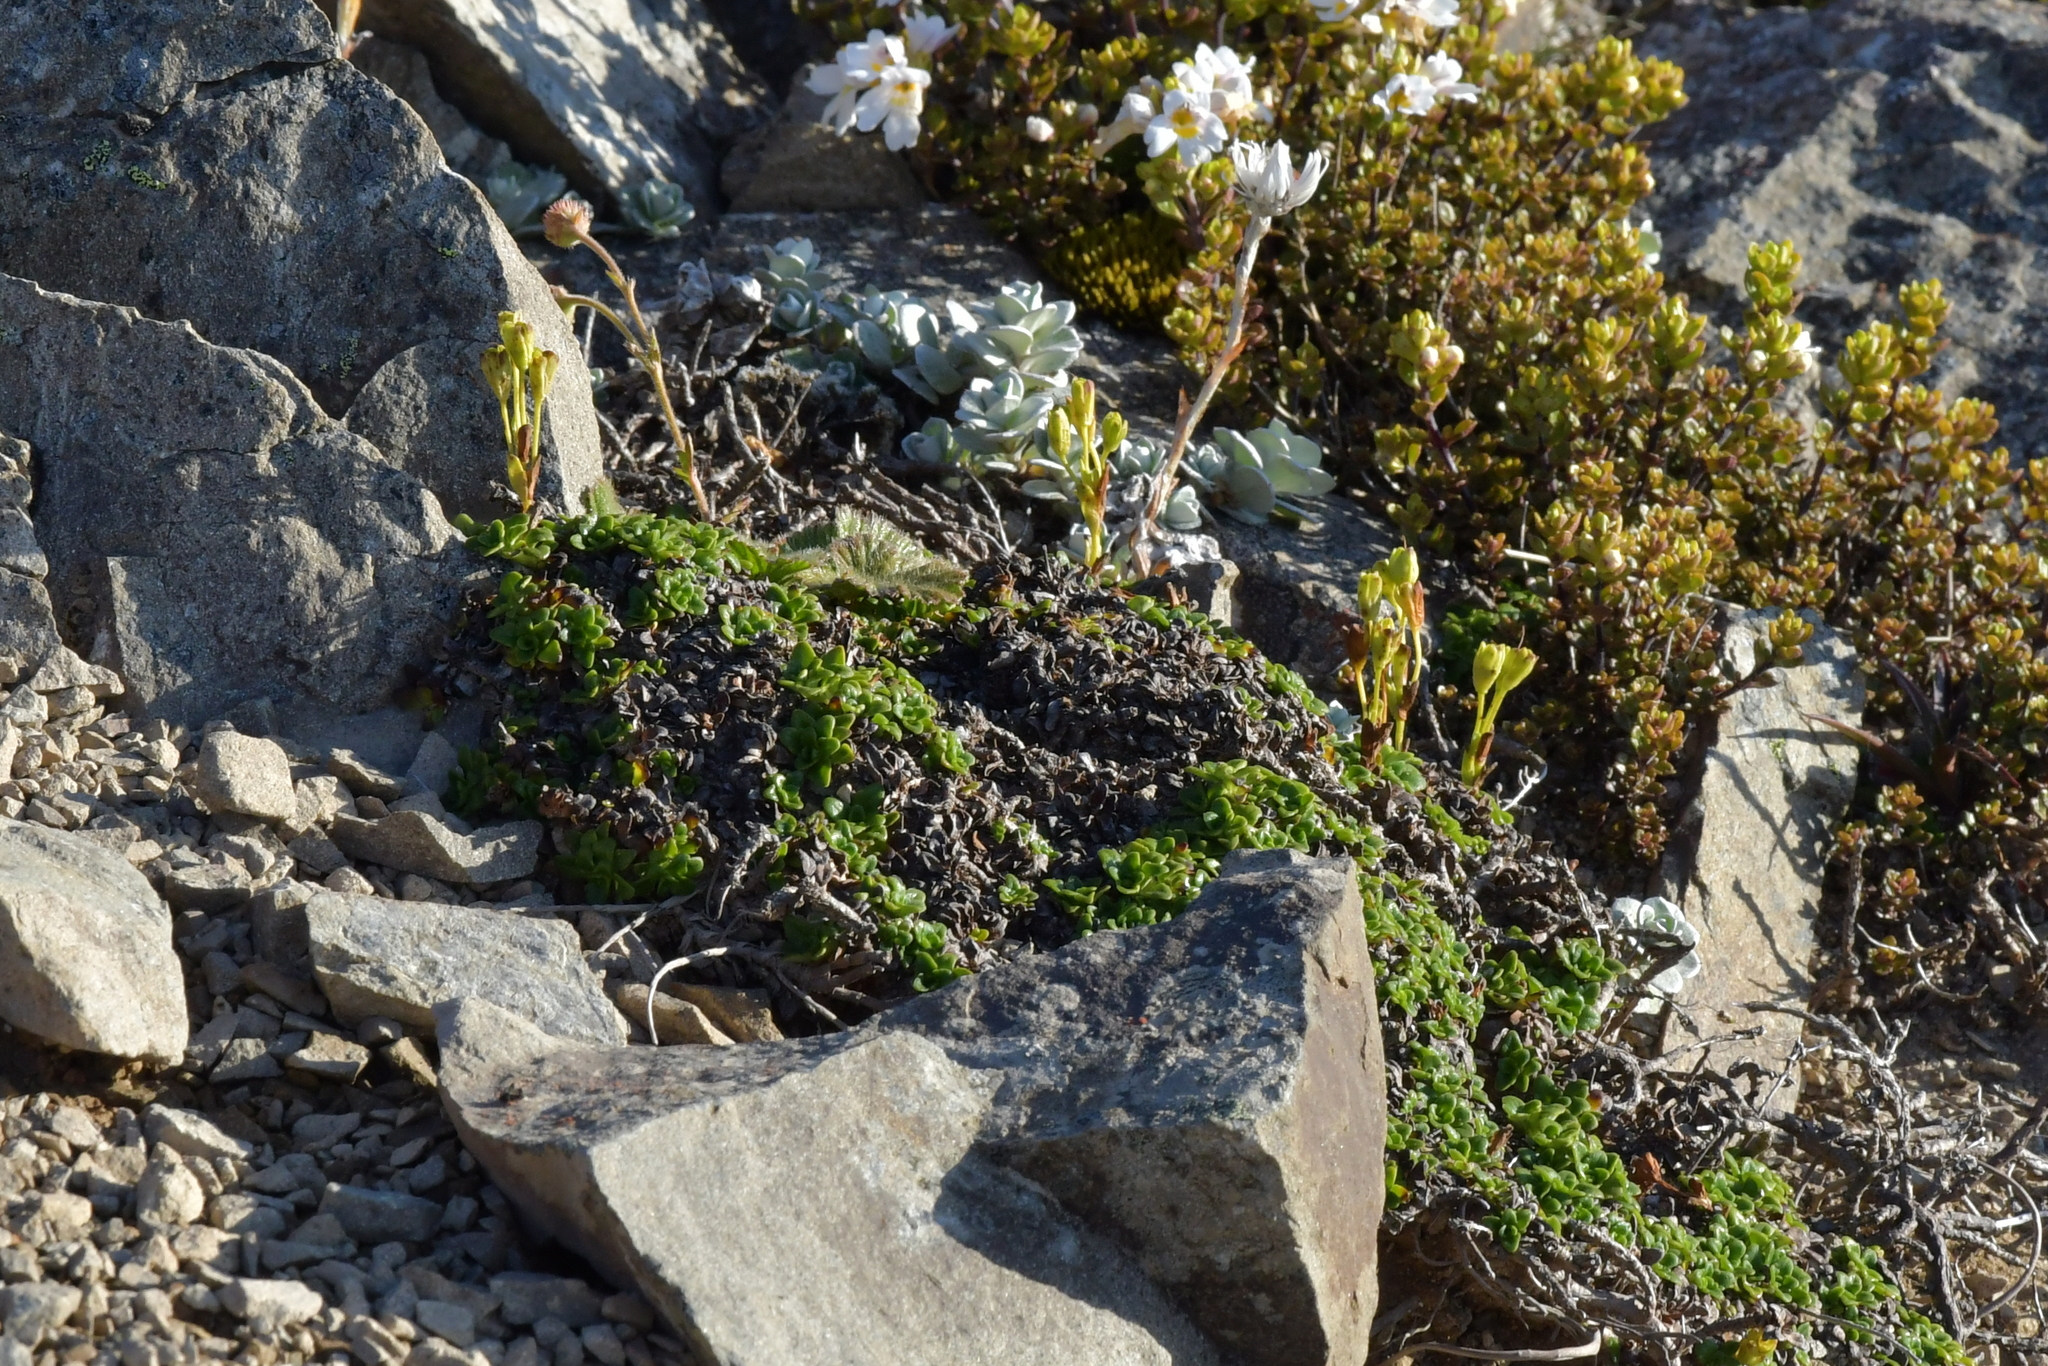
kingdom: Plantae
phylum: Tracheophyta
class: Magnoliopsida
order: Lamiales
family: Plantaginaceae
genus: Ourisia
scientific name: Ourisia caespitosa
